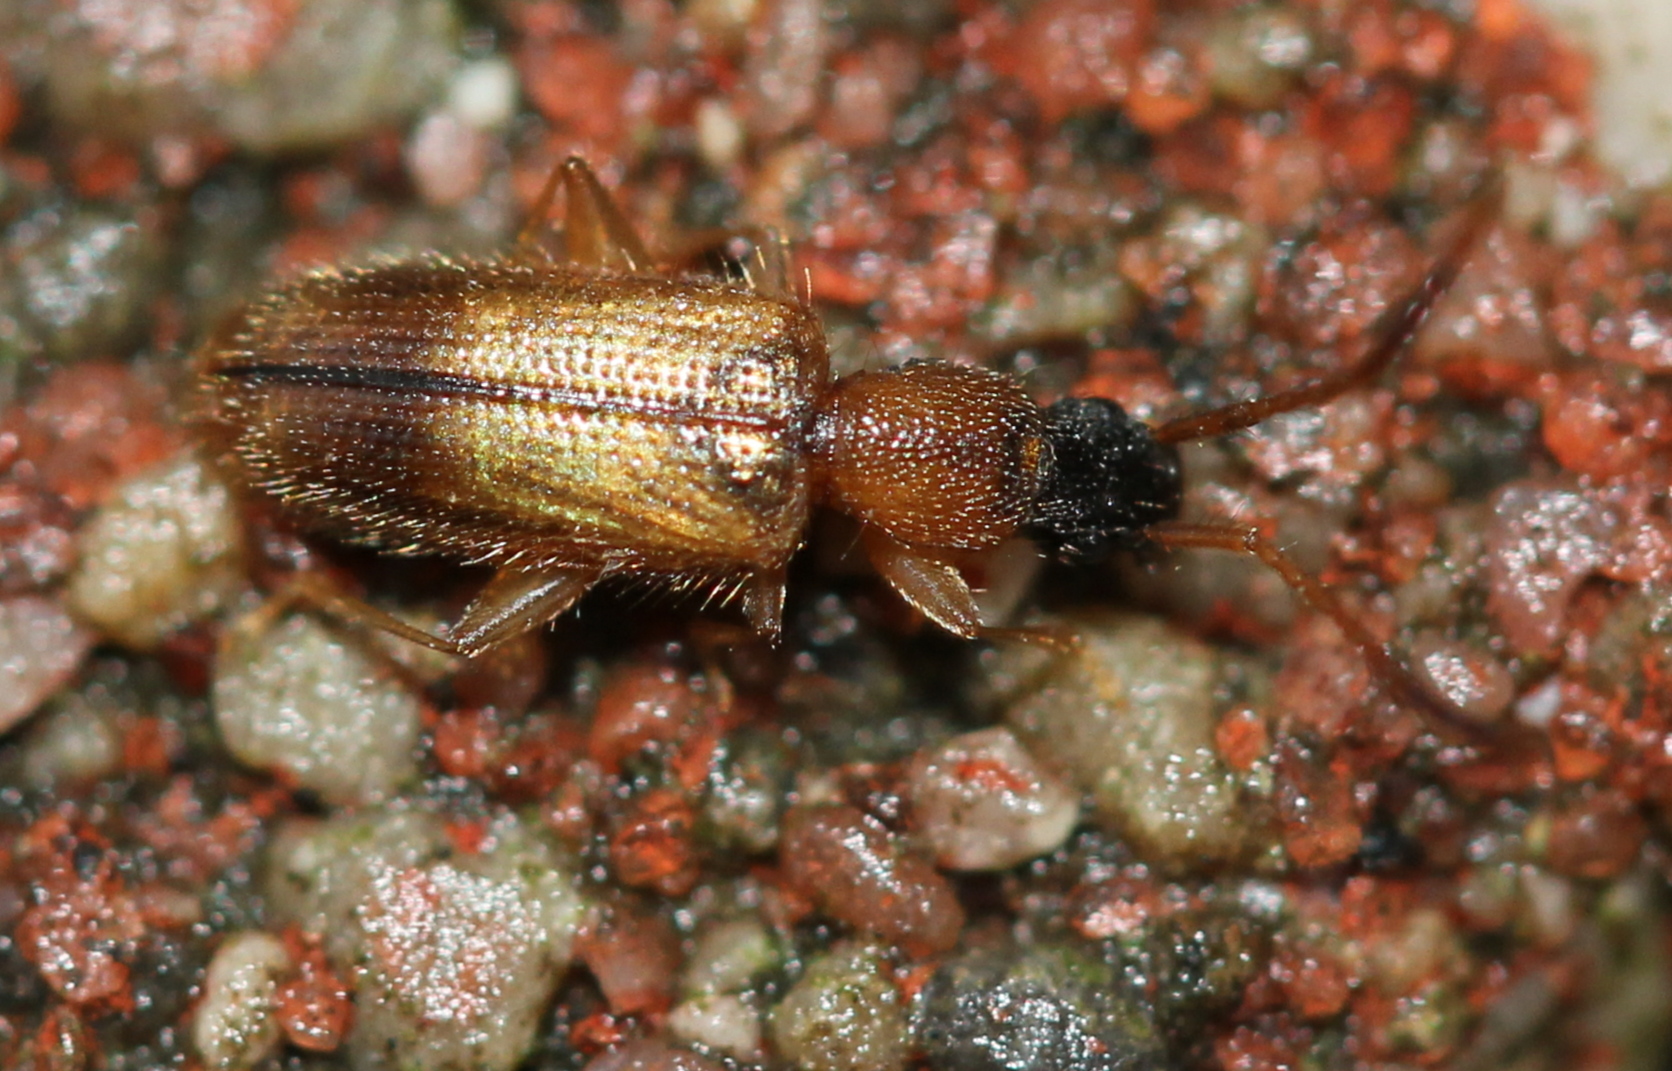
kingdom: Animalia
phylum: Arthropoda
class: Insecta
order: Coleoptera
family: Silvanidae
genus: Telephanus
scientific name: Telephanus velox
